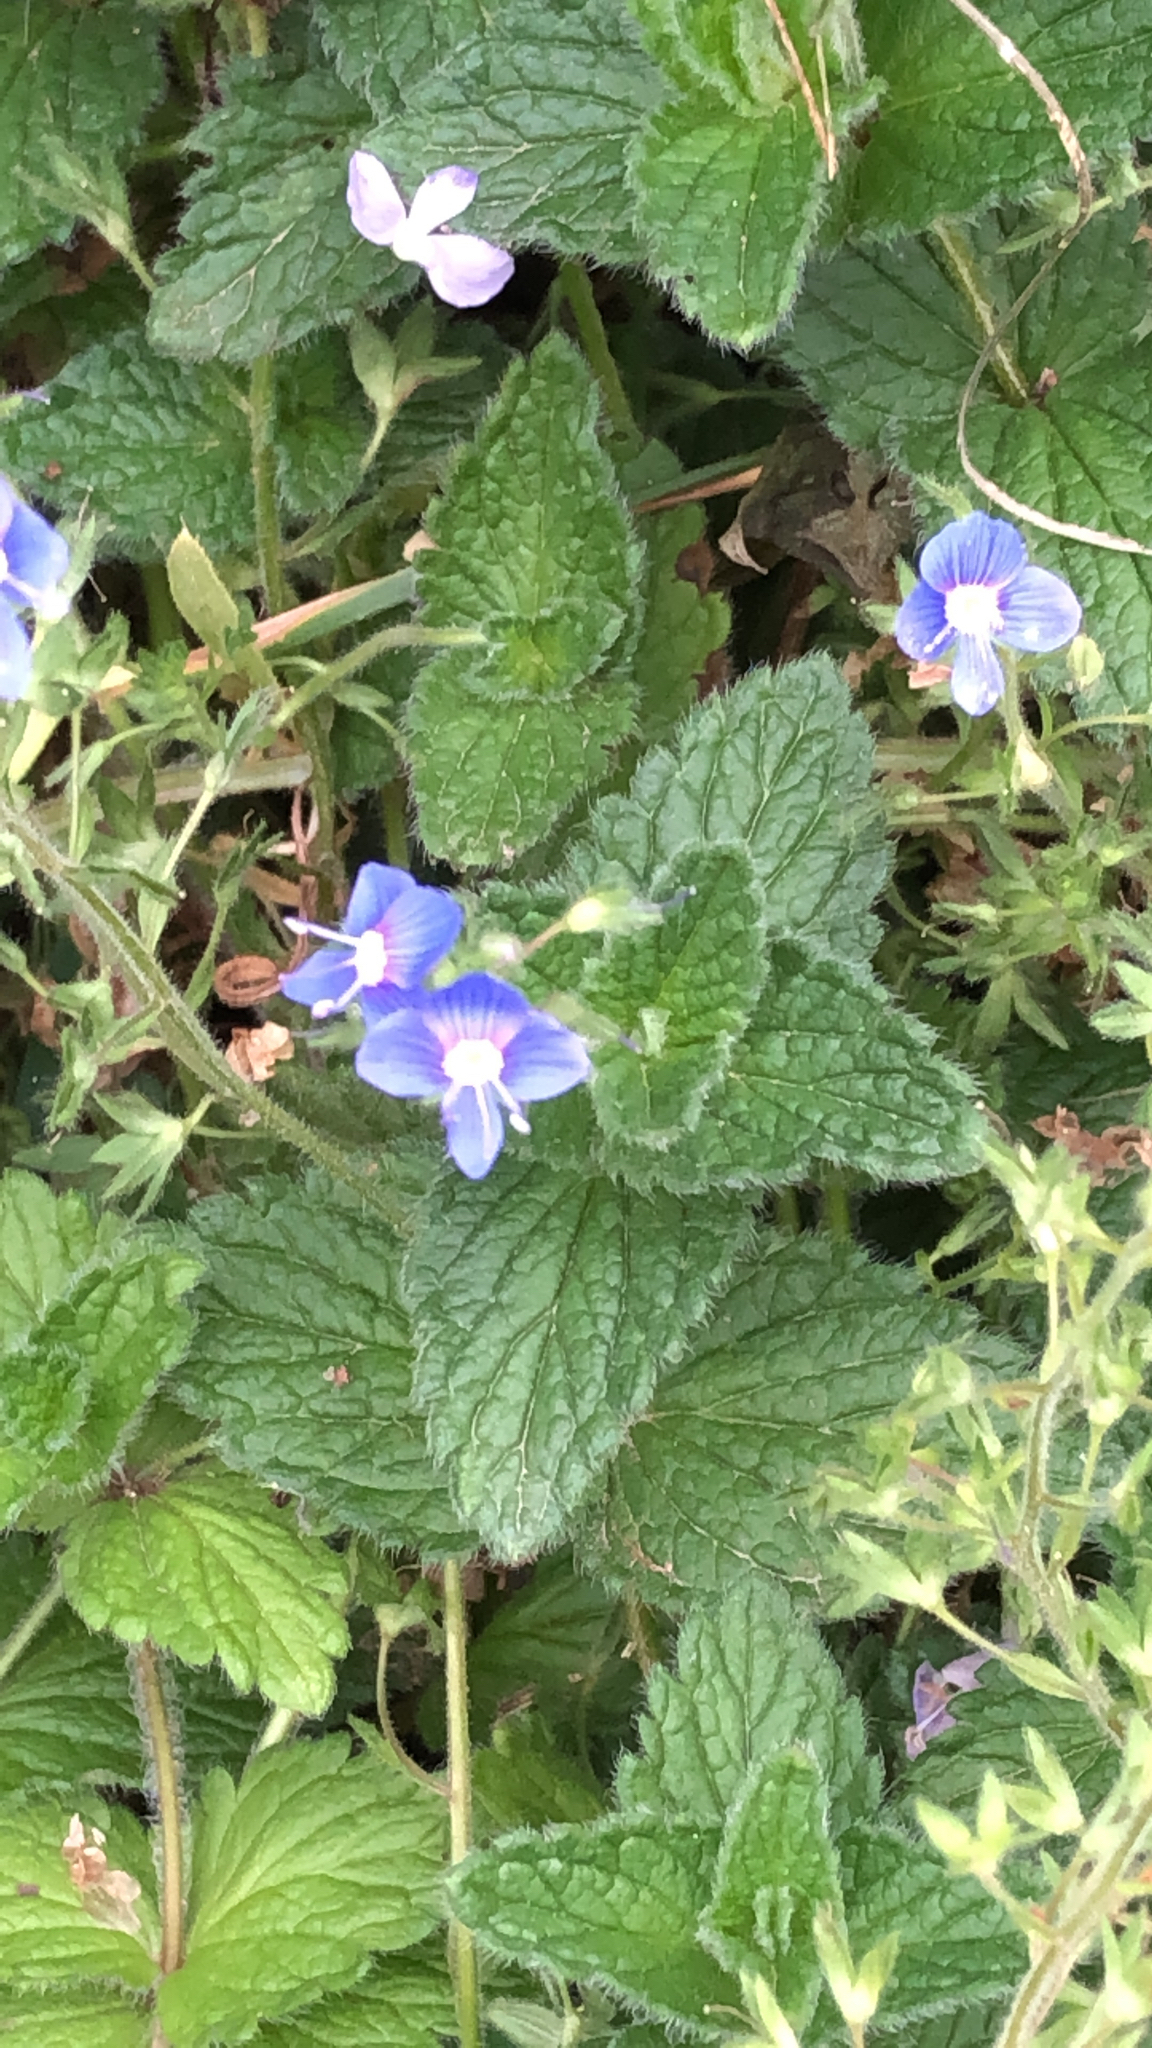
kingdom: Plantae
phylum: Tracheophyta
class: Magnoliopsida
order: Lamiales
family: Plantaginaceae
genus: Veronica
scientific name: Veronica chamaedrys
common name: Germander speedwell
